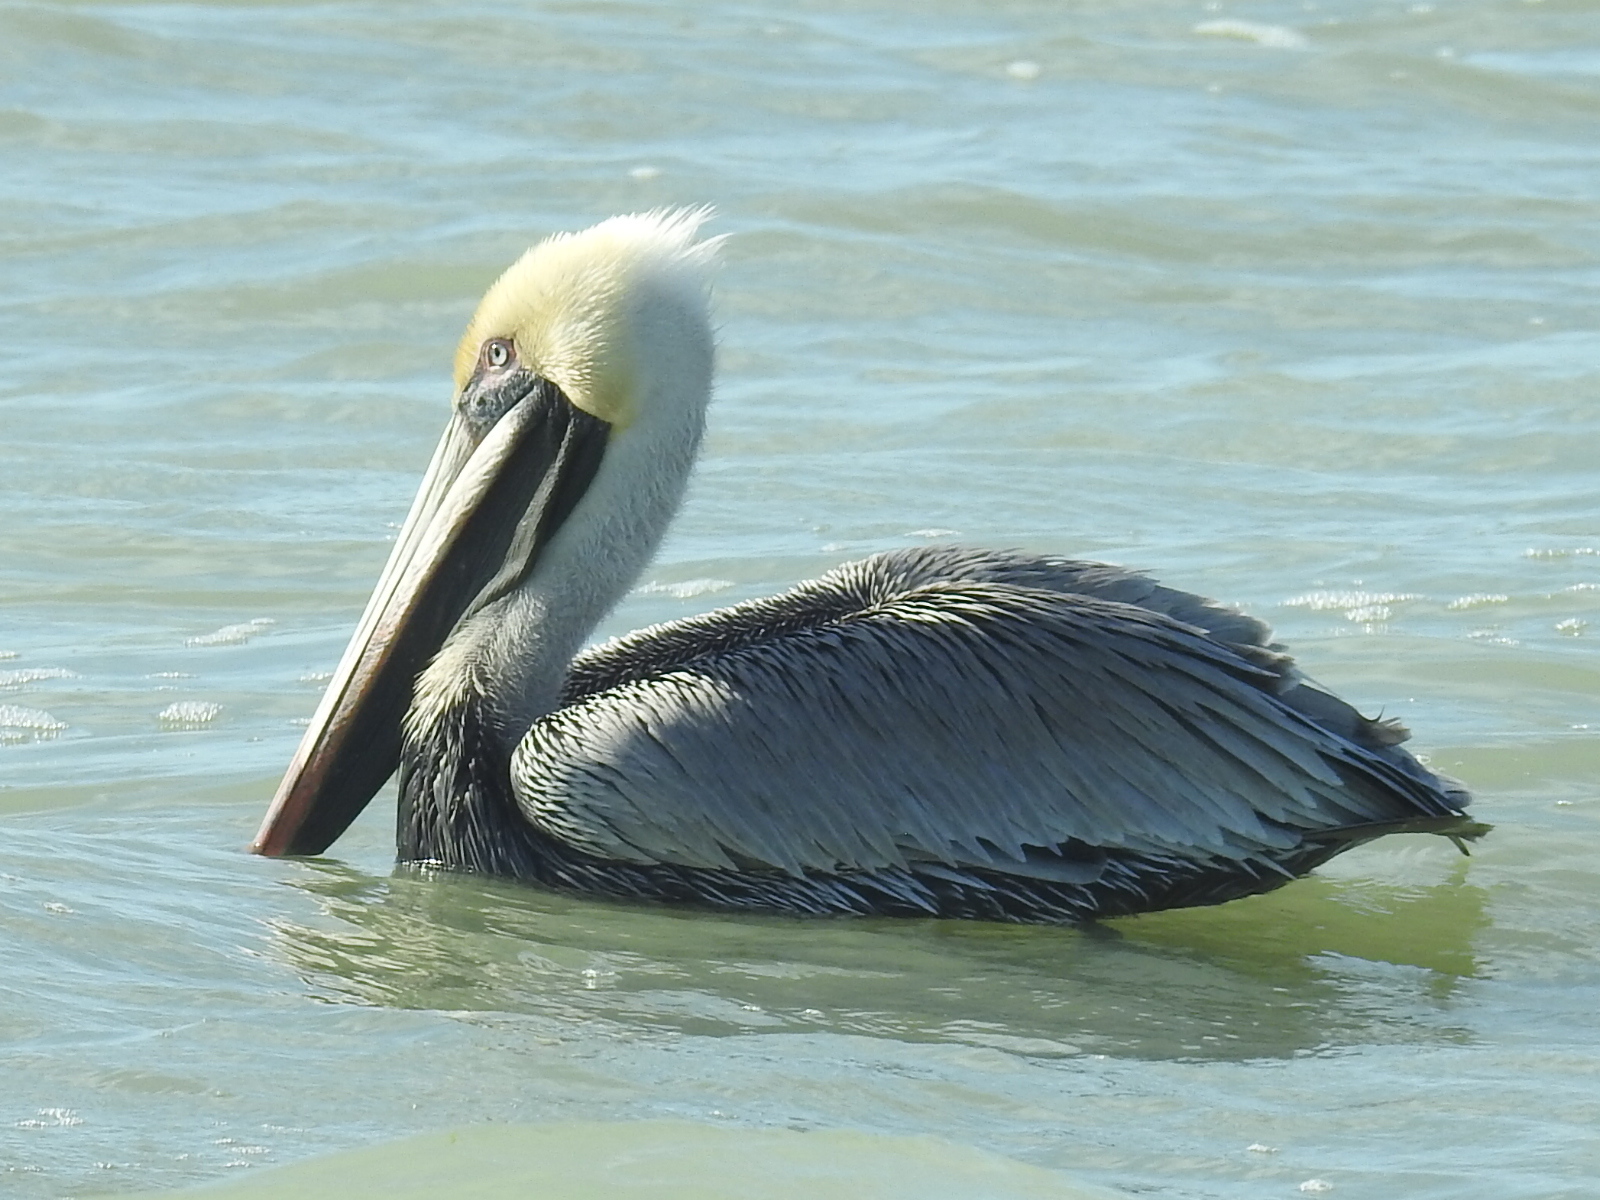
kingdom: Animalia
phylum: Chordata
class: Aves
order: Pelecaniformes
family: Pelecanidae
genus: Pelecanus
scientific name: Pelecanus occidentalis
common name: Brown pelican
